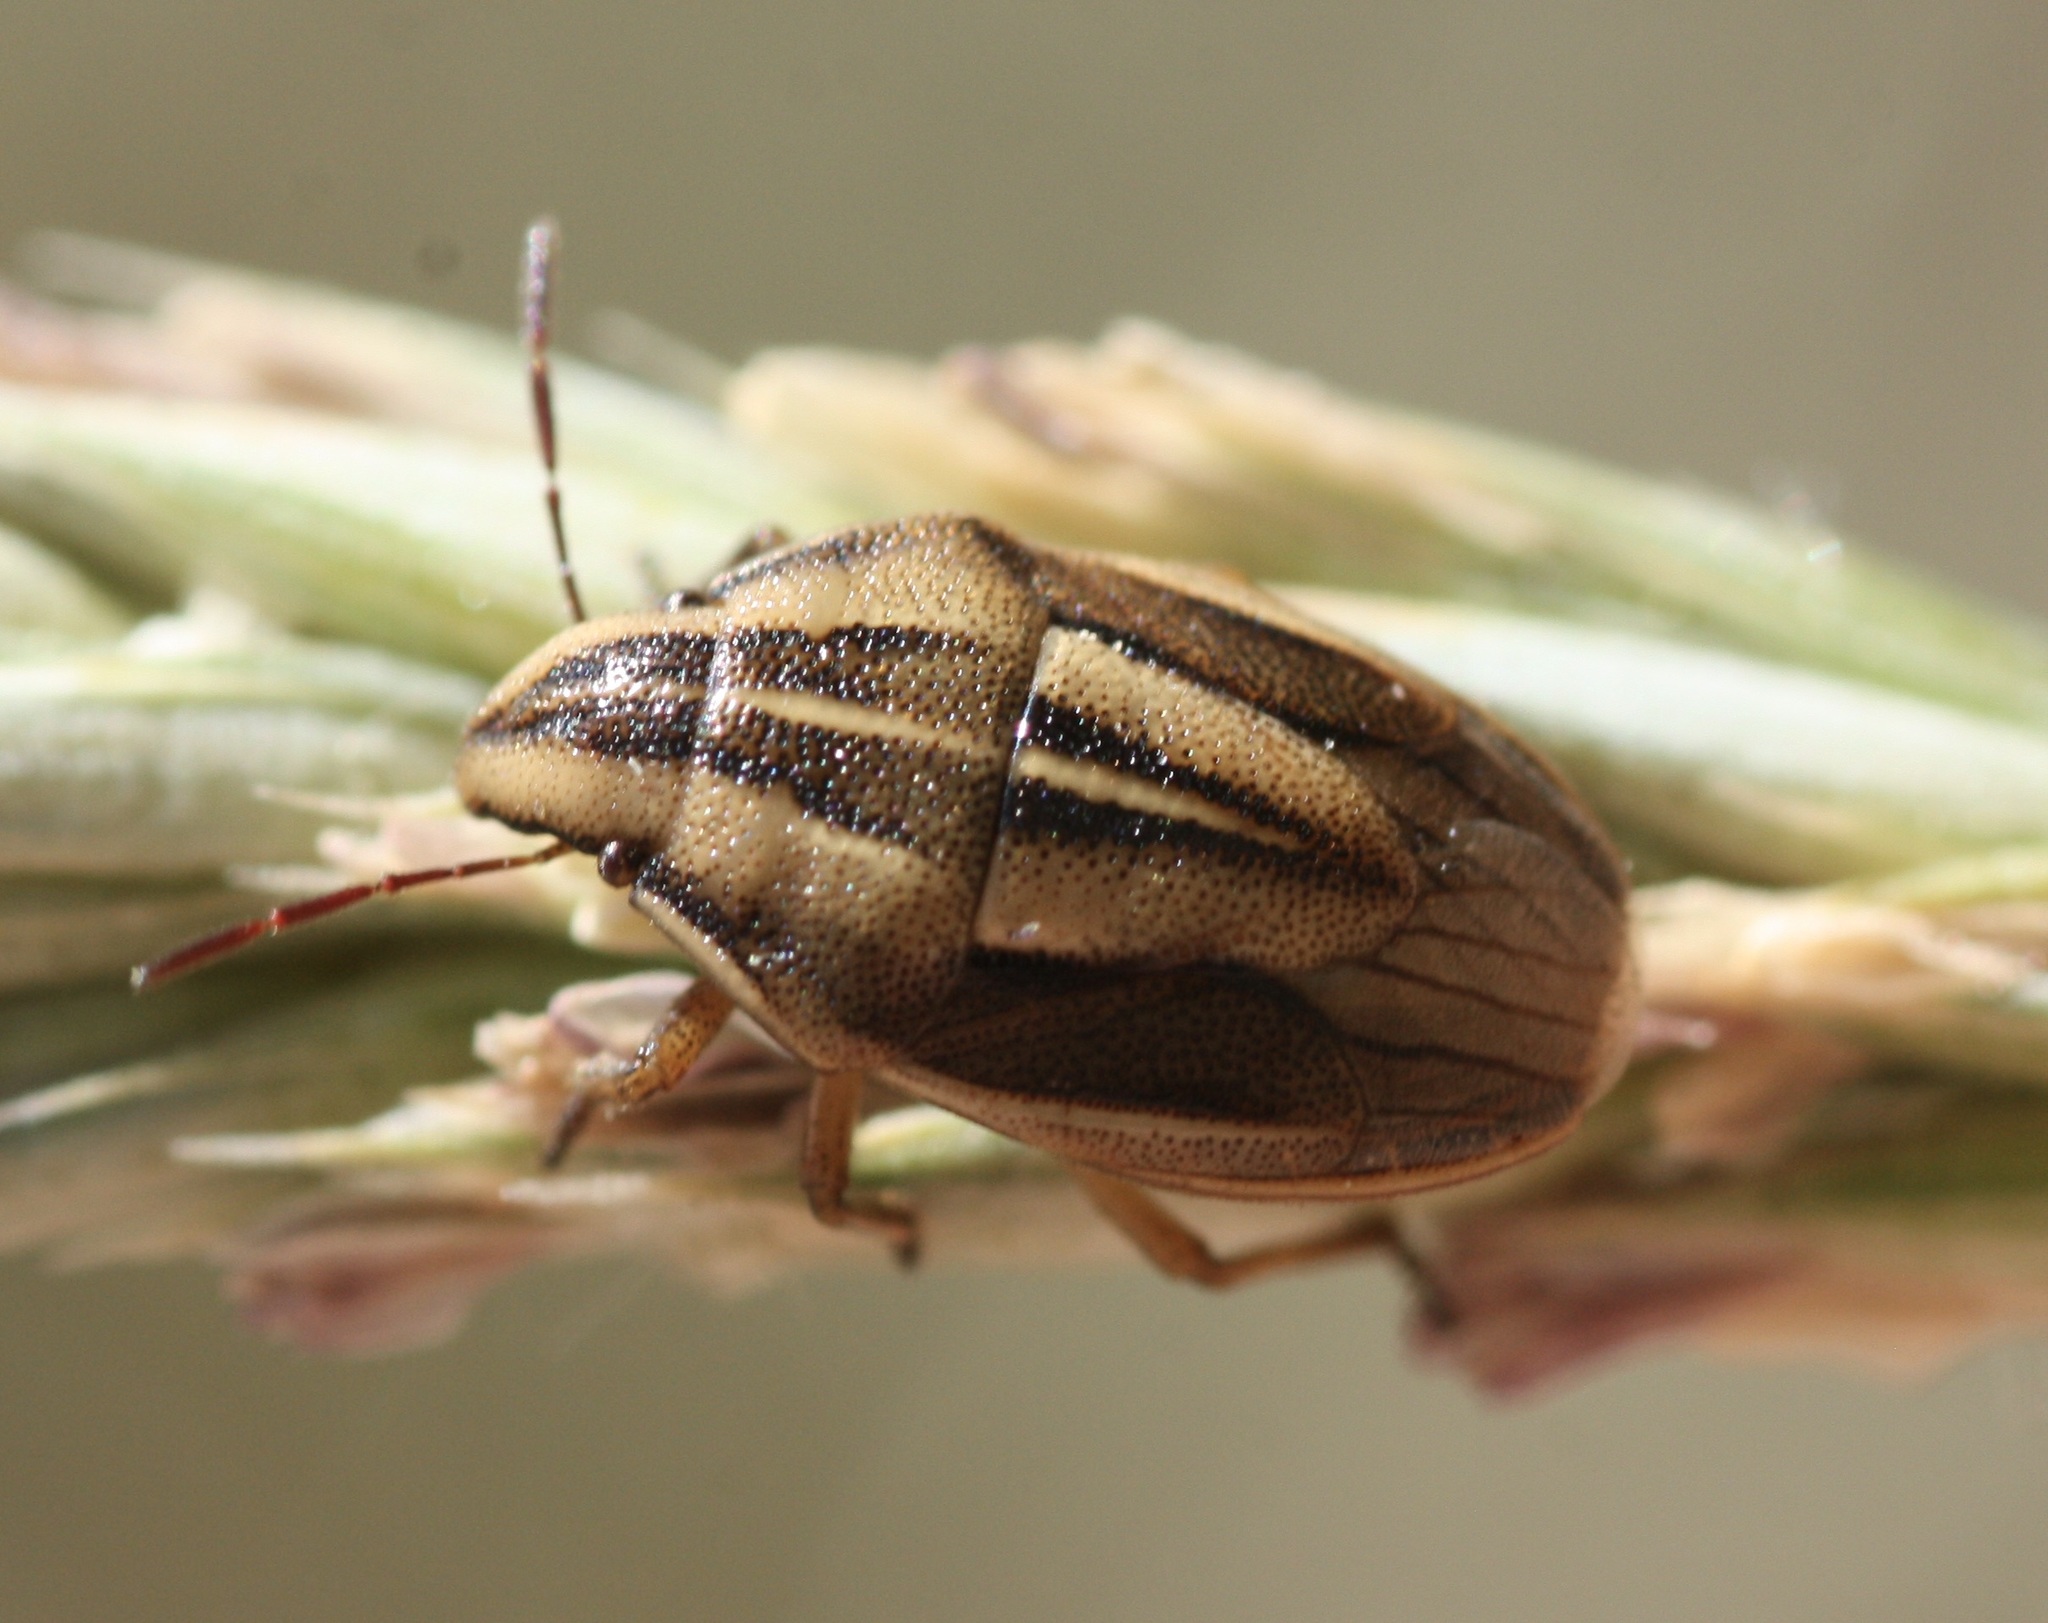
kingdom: Animalia
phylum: Arthropoda
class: Insecta
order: Hemiptera
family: Pentatomidae
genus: Aelia
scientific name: Aelia americana
